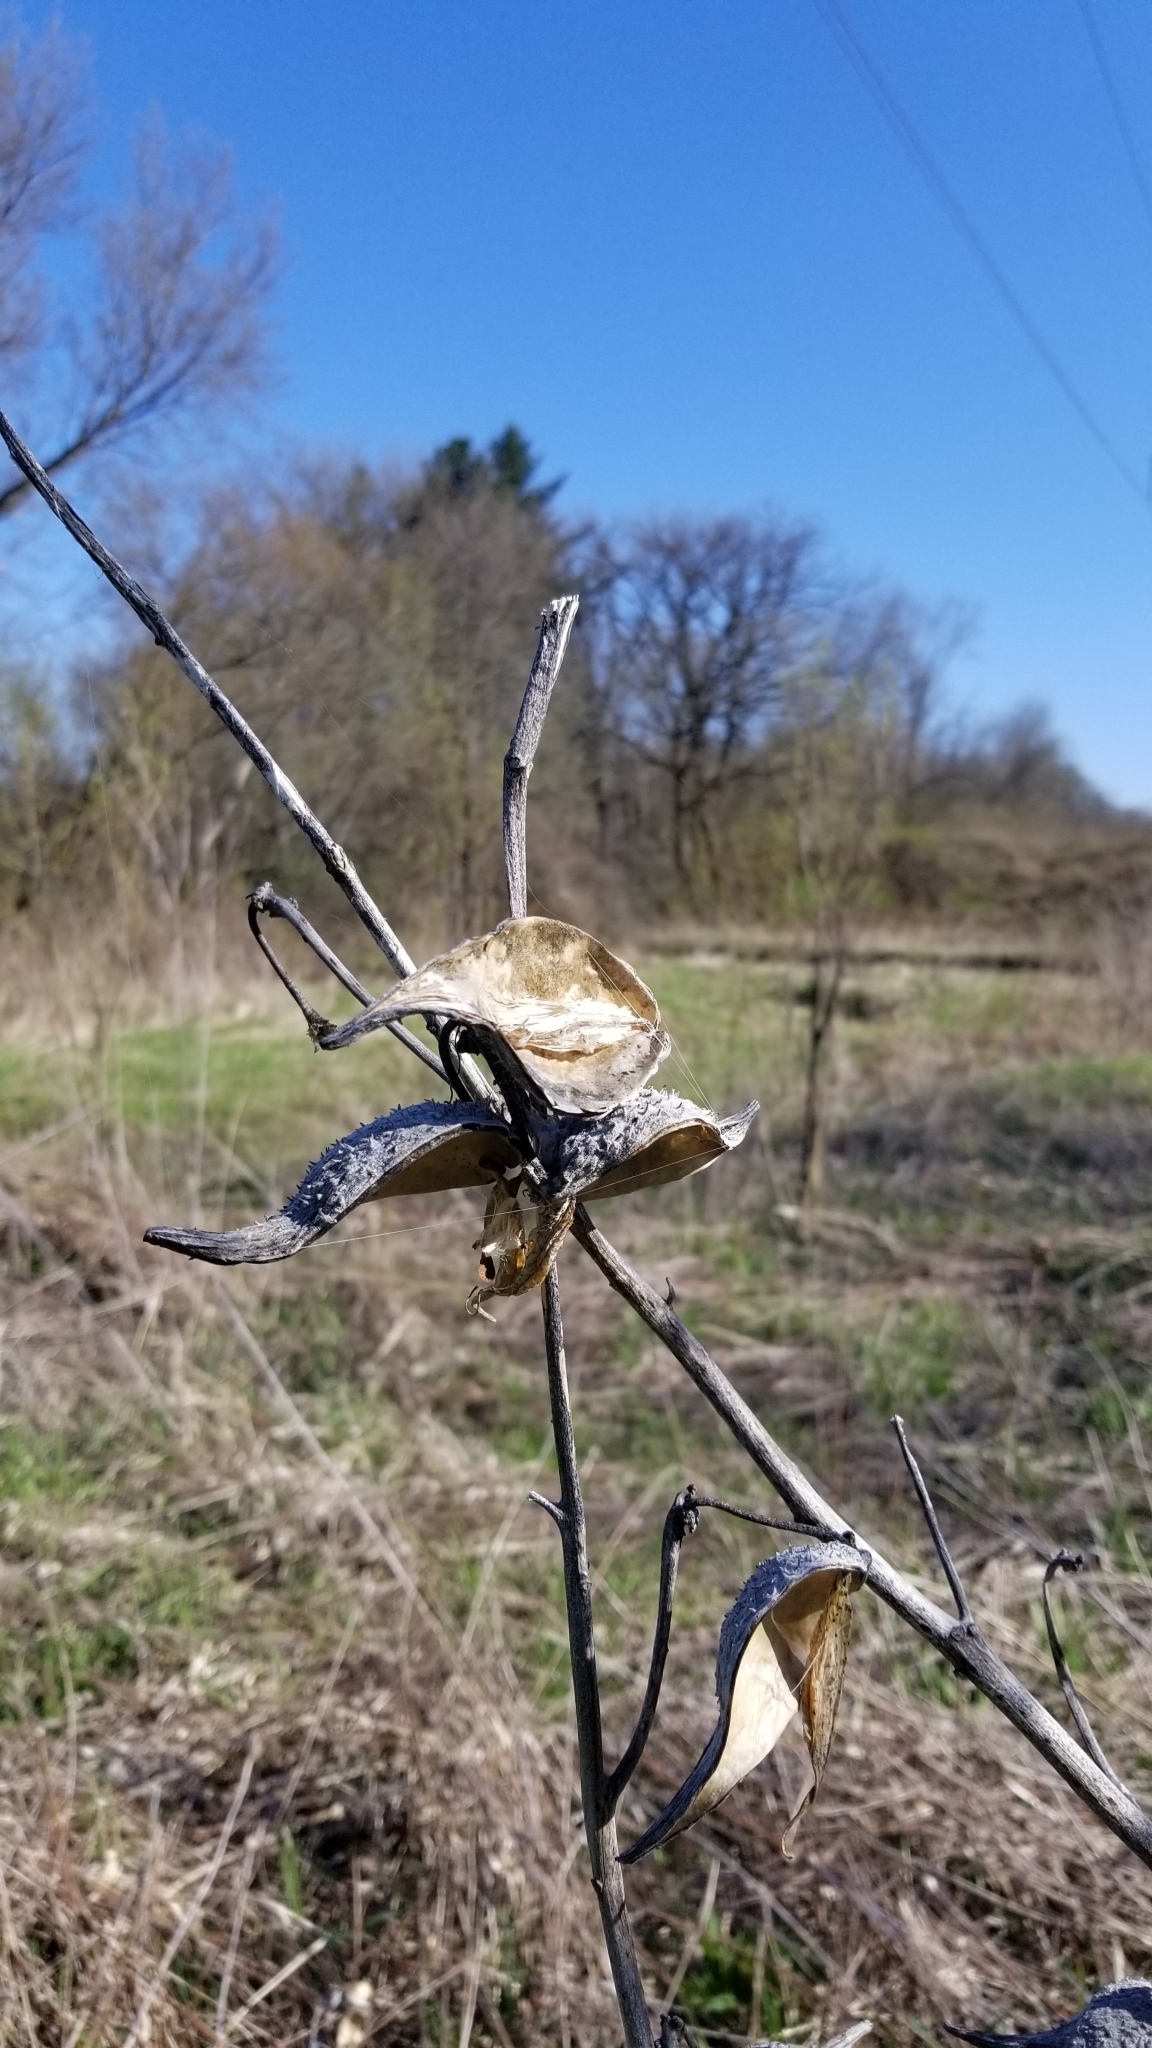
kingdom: Plantae
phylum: Tracheophyta
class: Magnoliopsida
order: Gentianales
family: Apocynaceae
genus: Asclepias
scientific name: Asclepias syriaca
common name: Common milkweed
